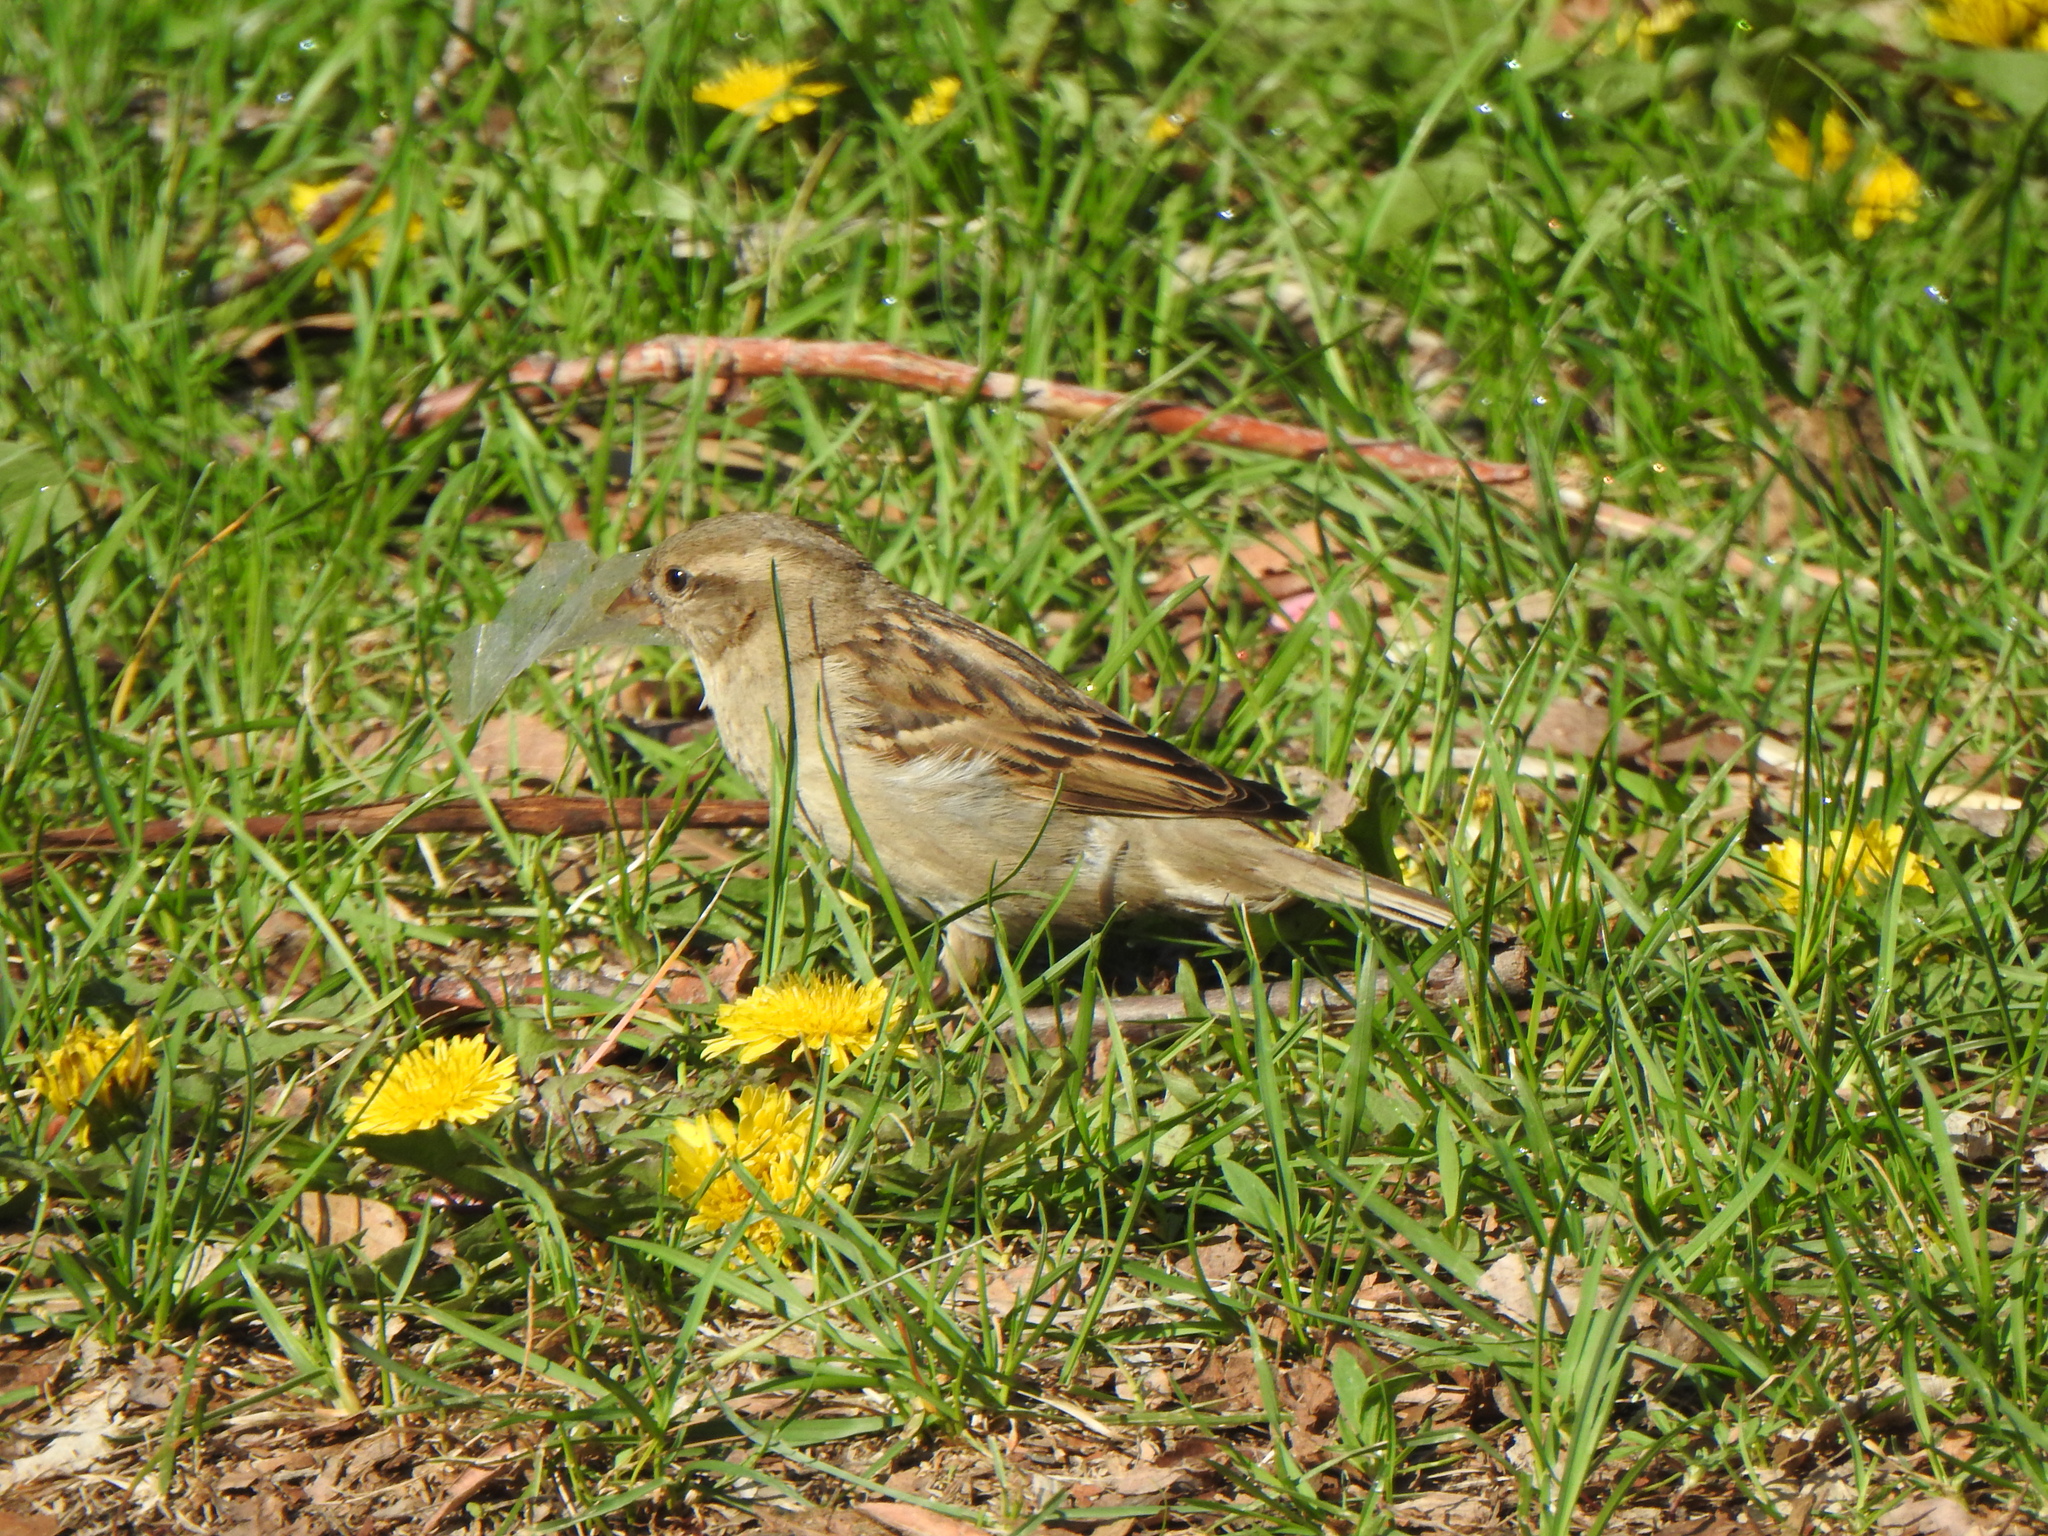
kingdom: Animalia
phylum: Chordata
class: Aves
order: Passeriformes
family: Passeridae
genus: Passer
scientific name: Passer domesticus
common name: House sparrow
